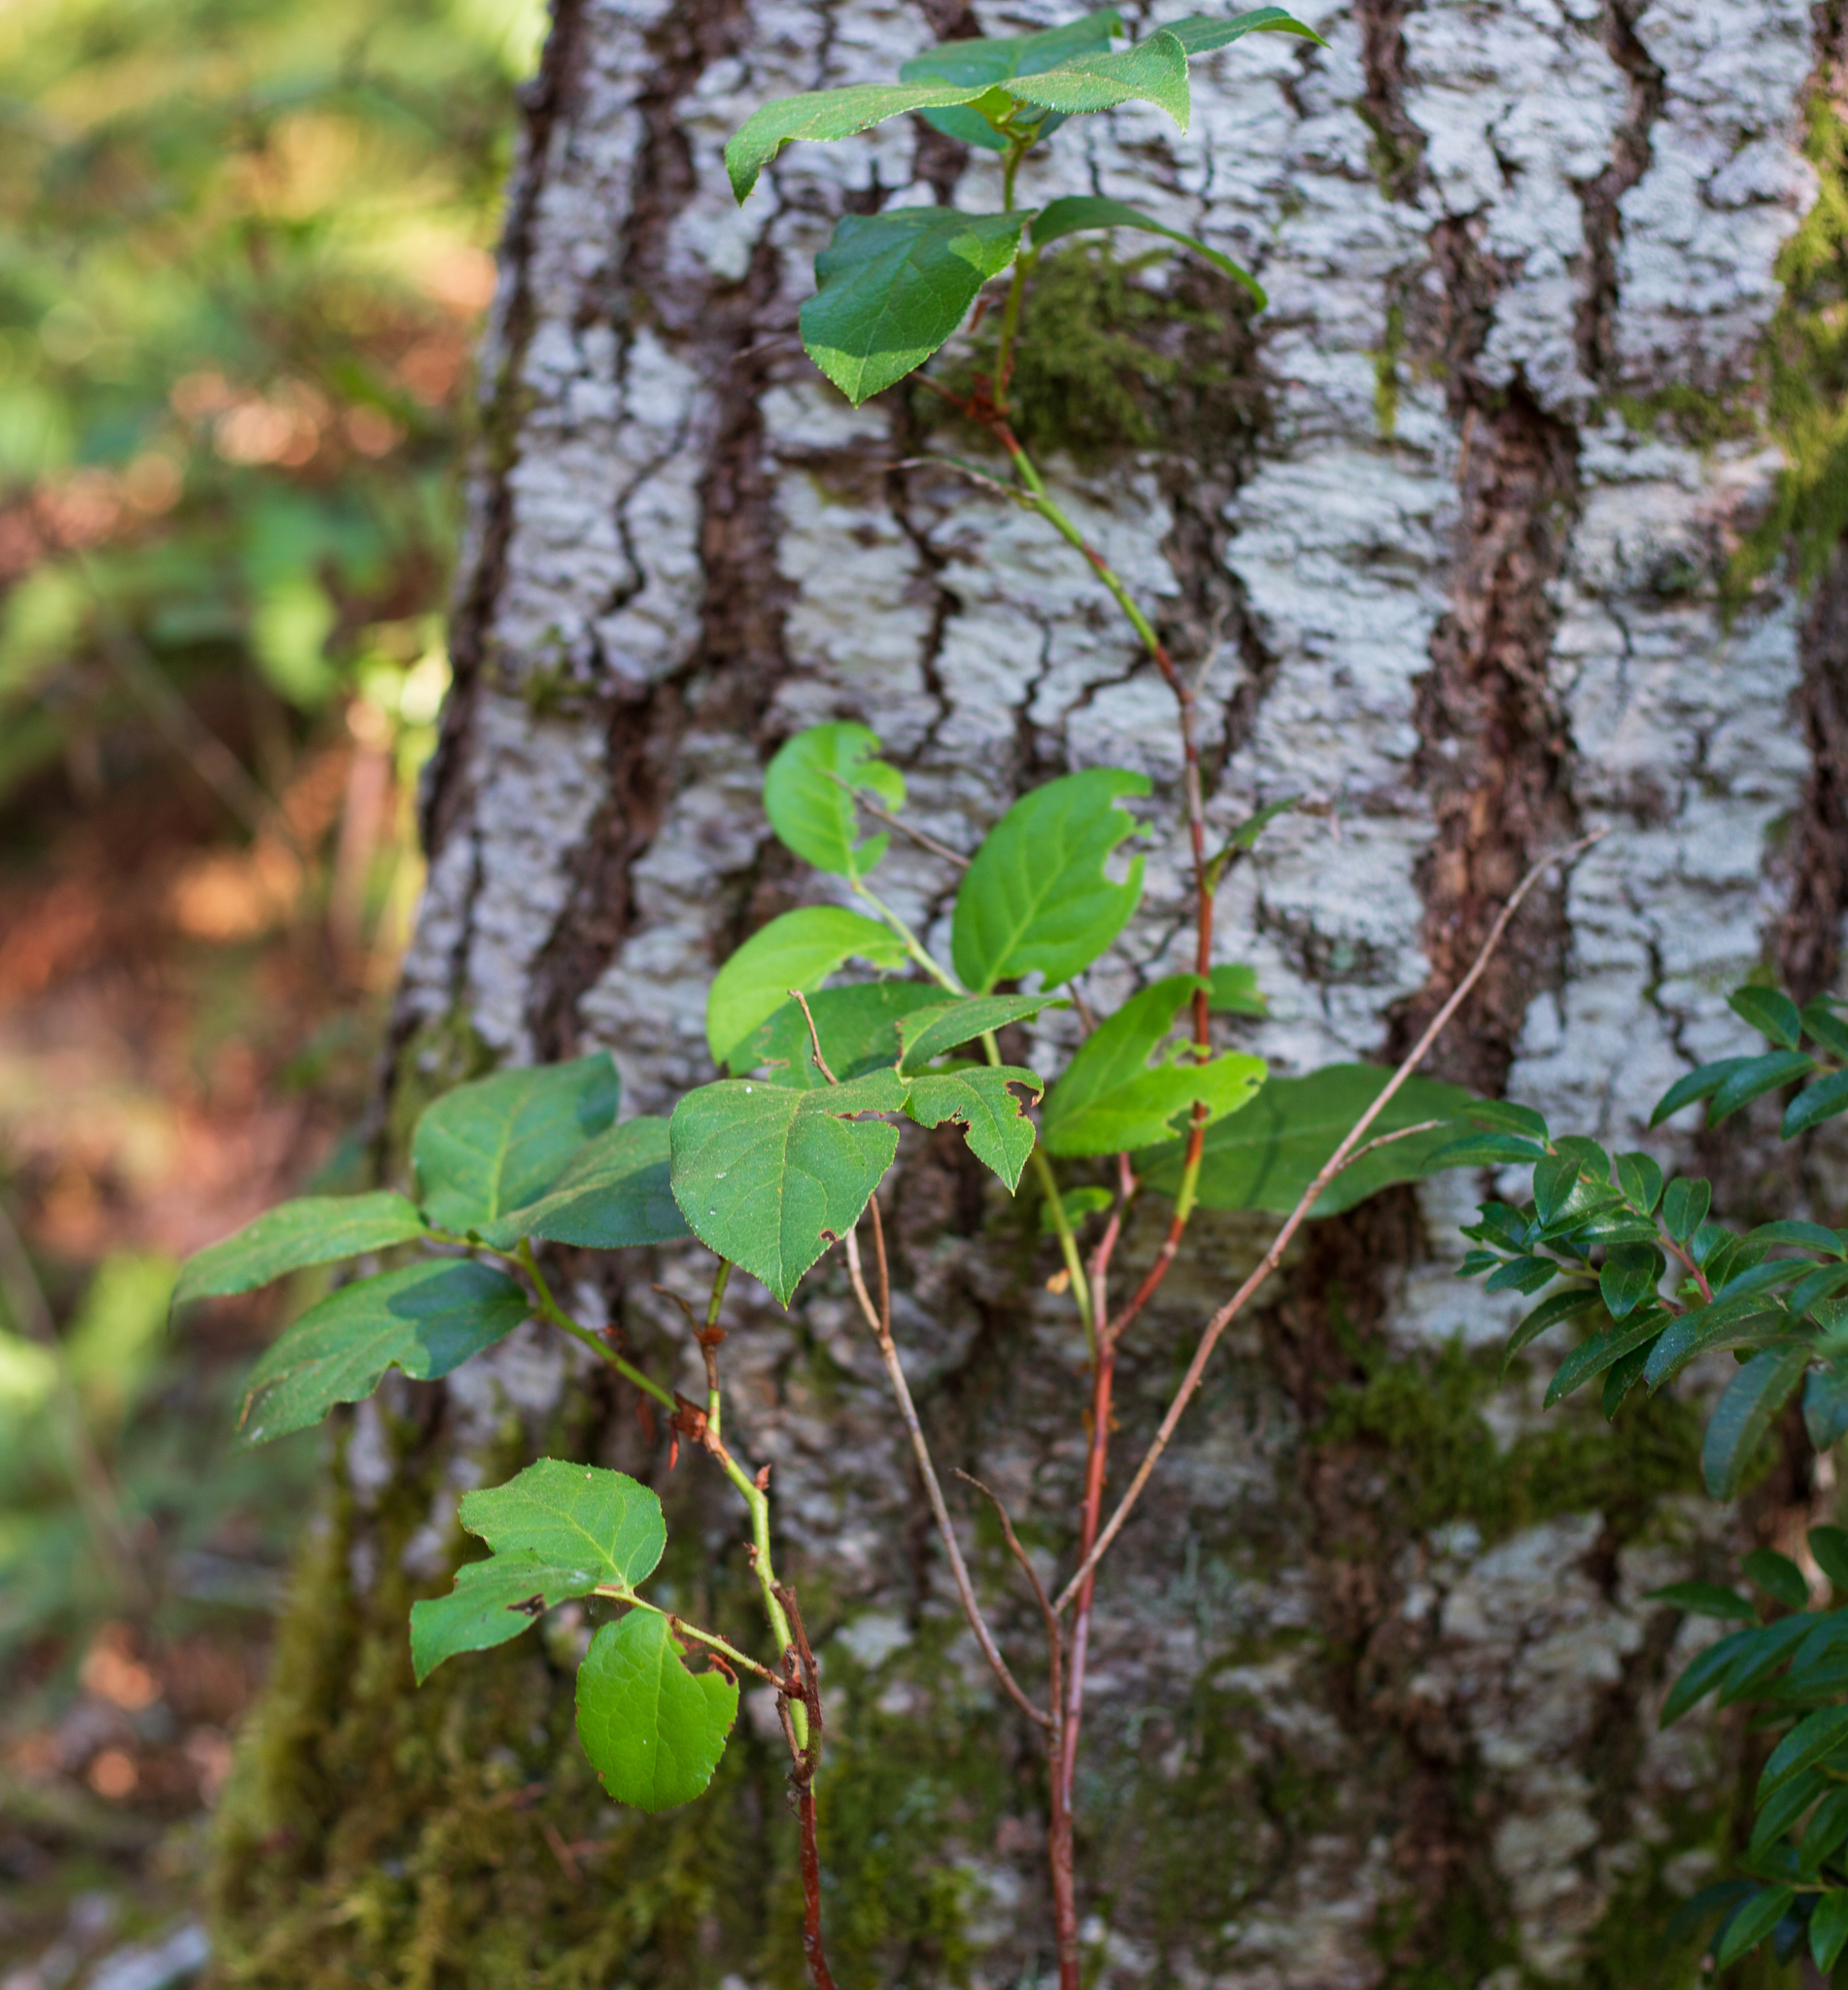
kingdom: Plantae
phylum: Tracheophyta
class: Magnoliopsida
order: Ericales
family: Ericaceae
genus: Gaultheria
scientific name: Gaultheria shallon
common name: Shallon
